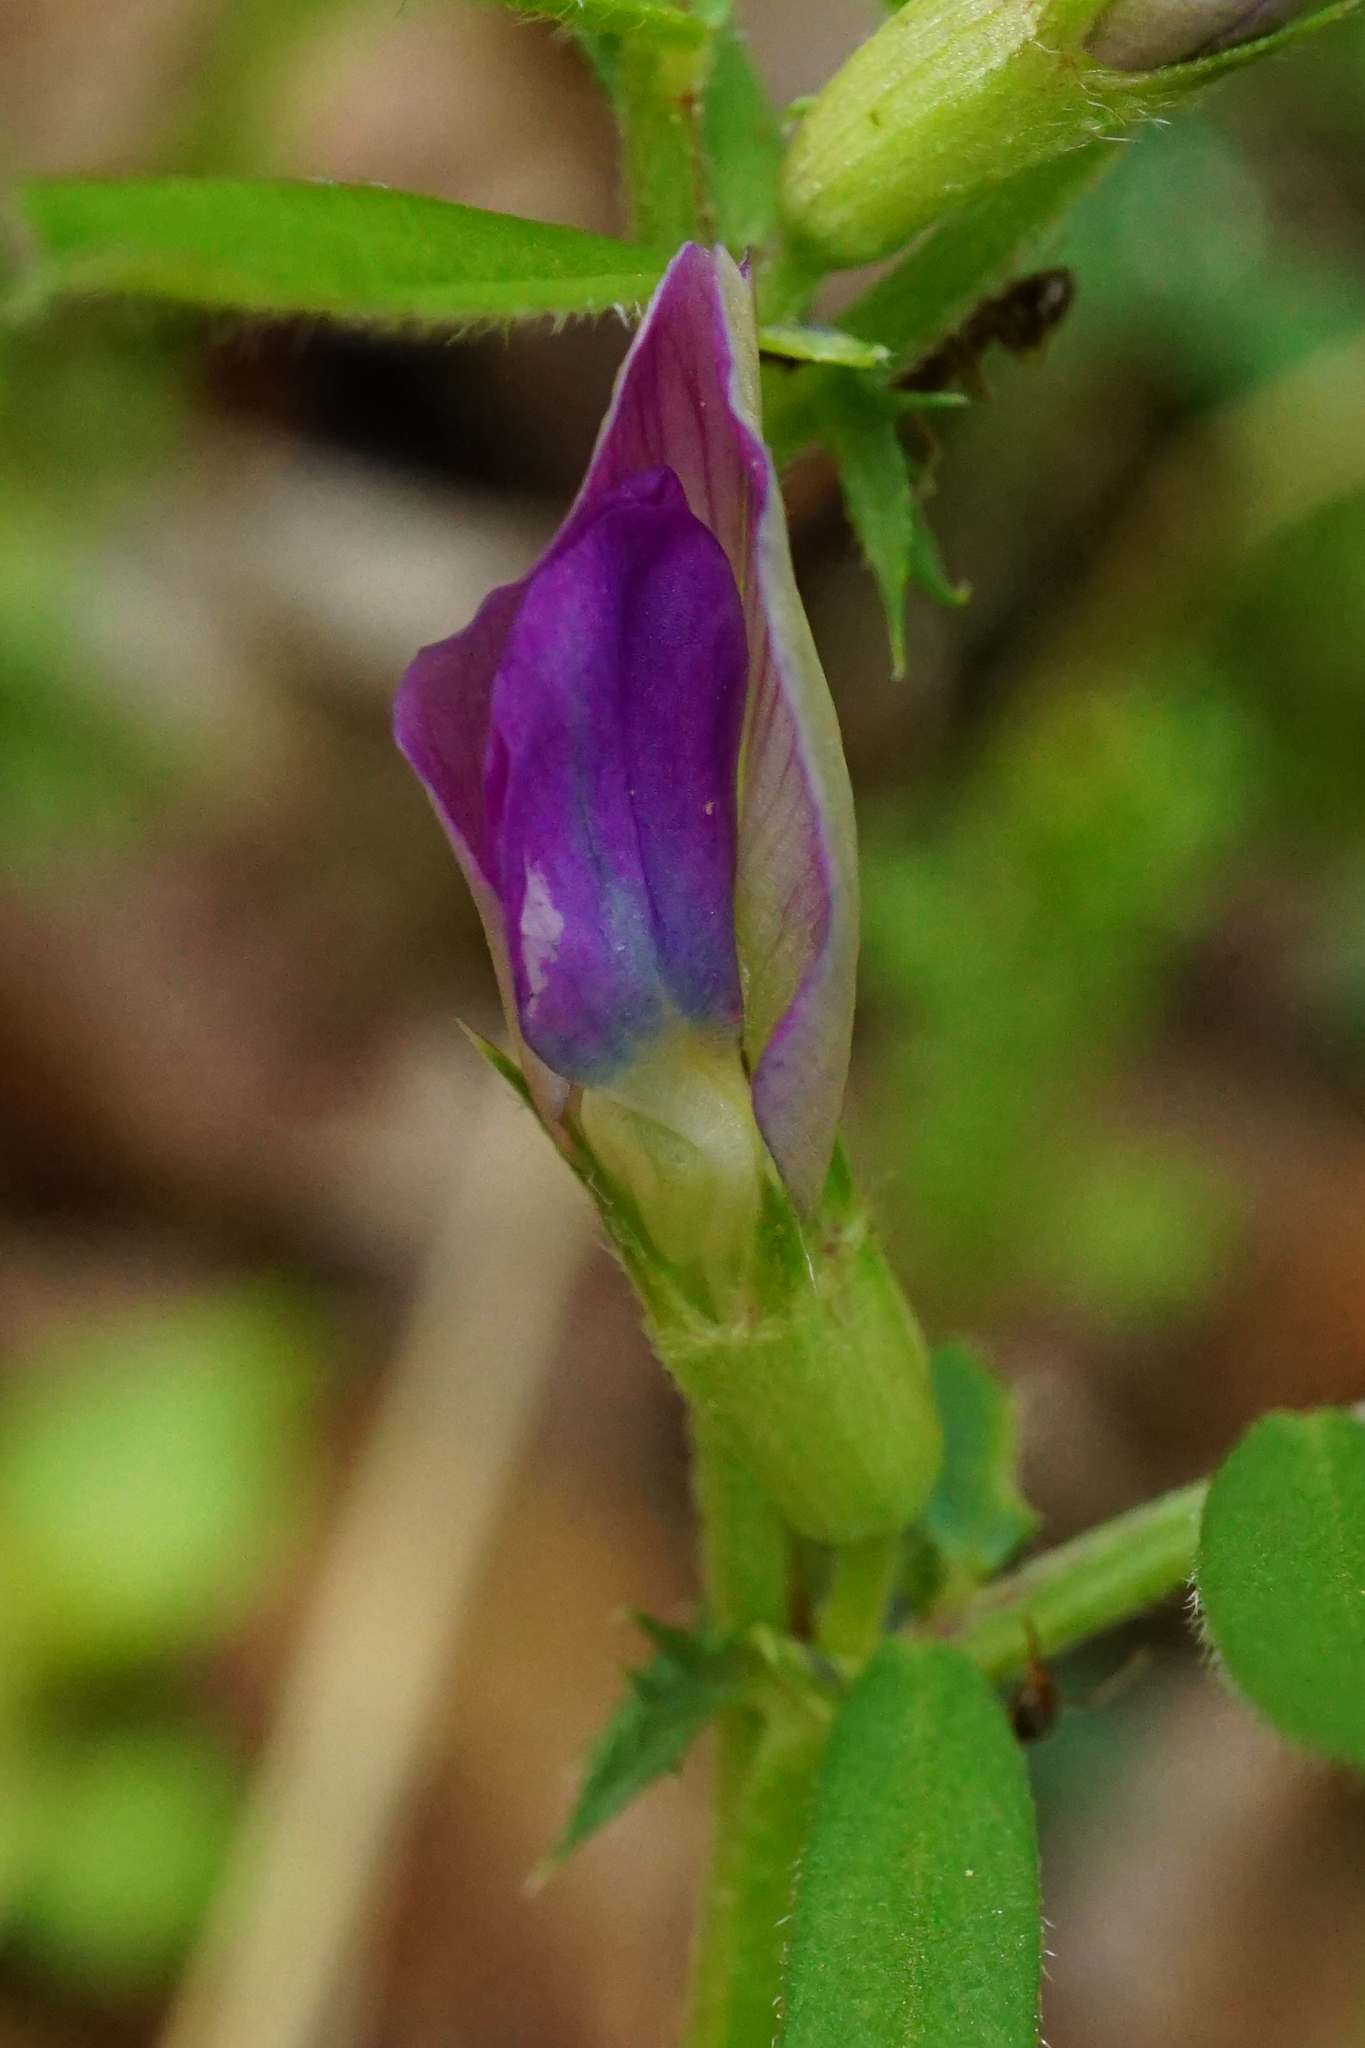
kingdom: Plantae
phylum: Tracheophyta
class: Magnoliopsida
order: Fabales
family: Fabaceae
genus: Vicia
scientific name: Vicia sativa
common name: Garden vetch
